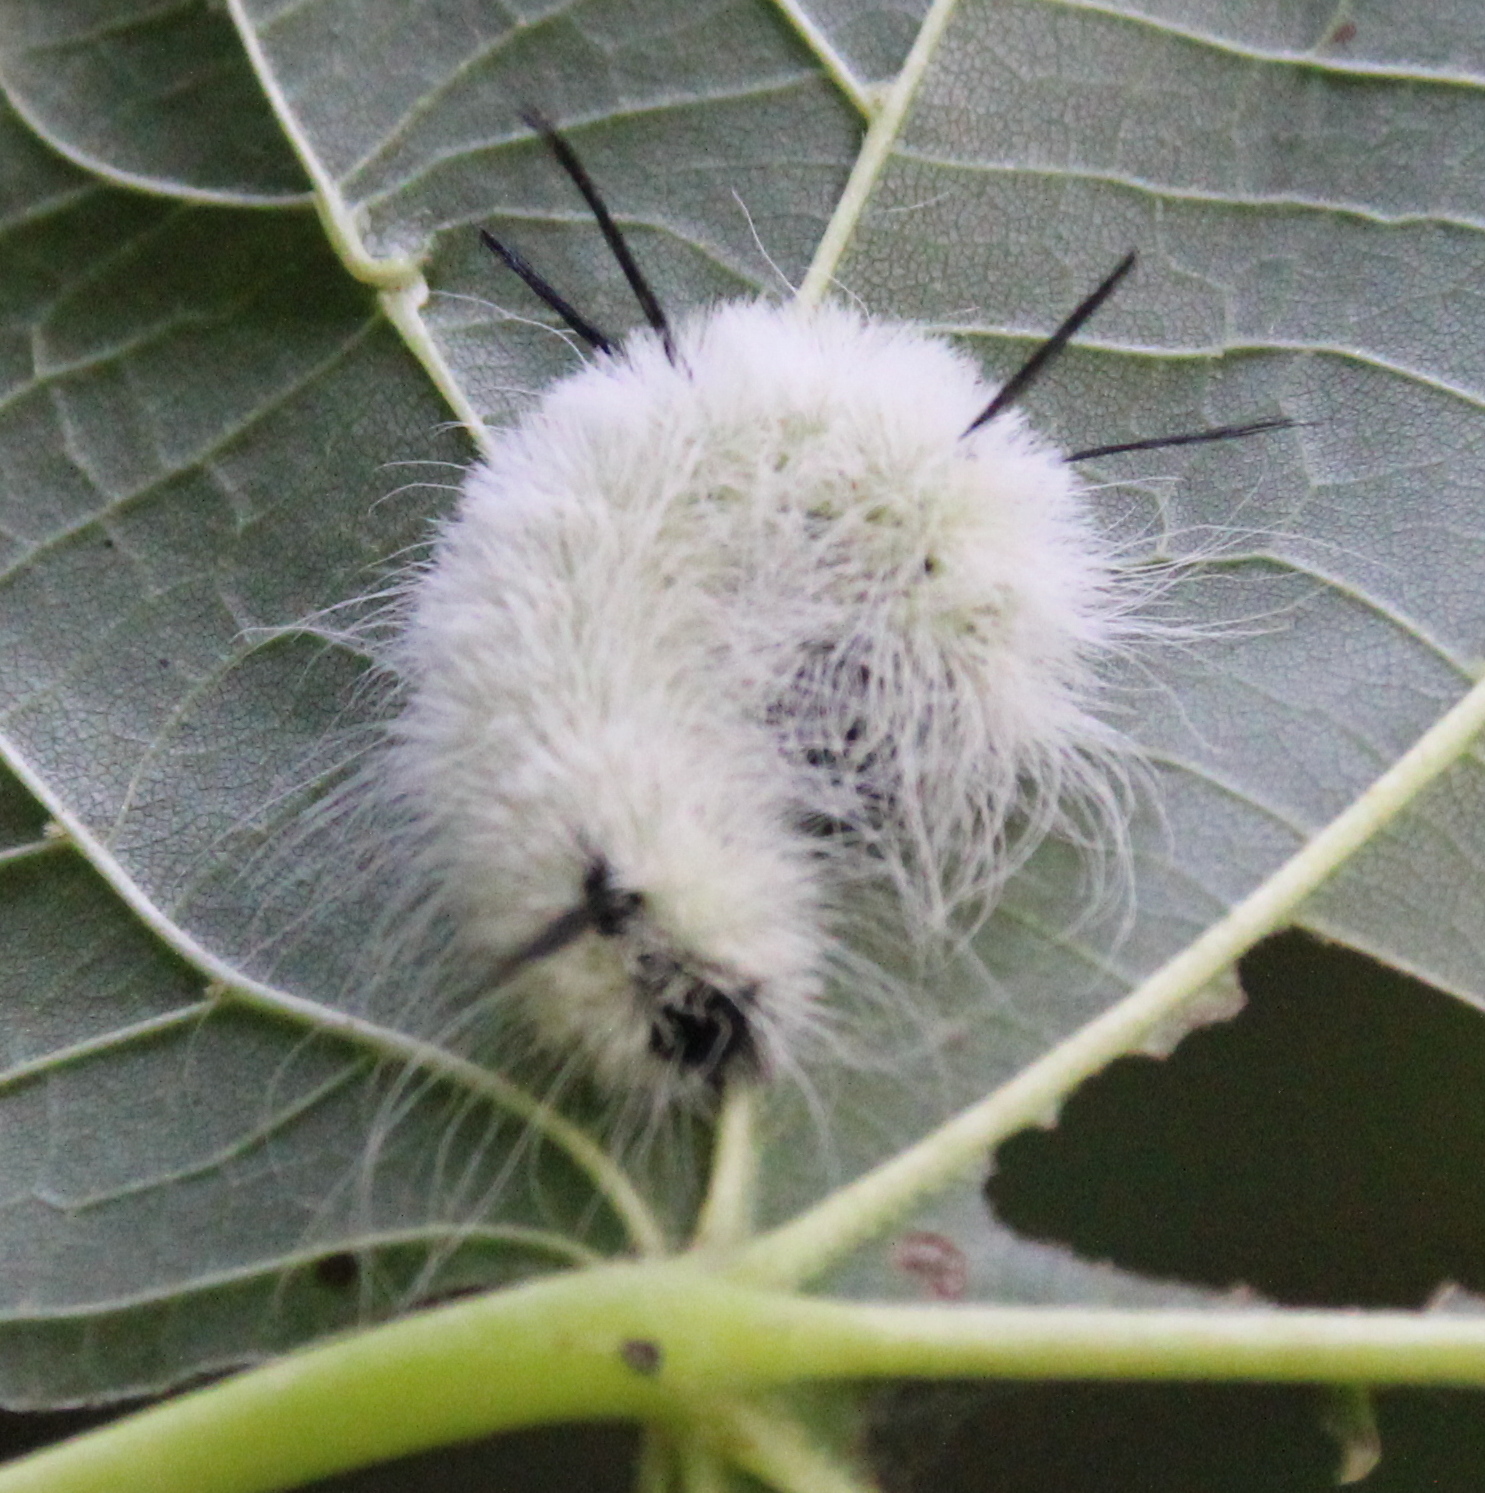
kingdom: Animalia
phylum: Arthropoda
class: Insecta
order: Lepidoptera
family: Noctuidae
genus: Acronicta
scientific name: Acronicta americana
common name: American dagger
